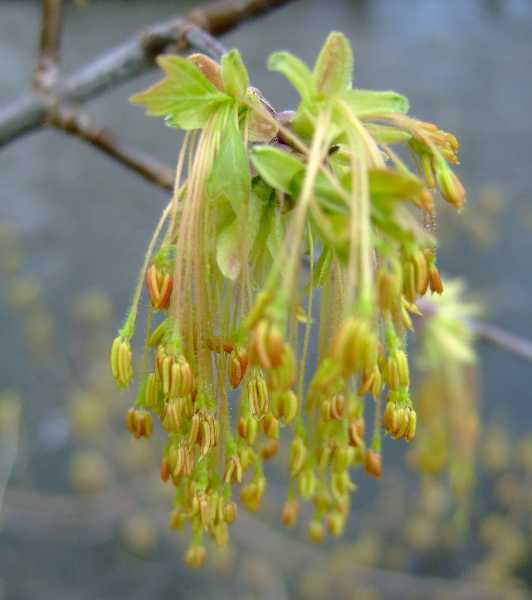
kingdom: Plantae
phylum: Tracheophyta
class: Magnoliopsida
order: Sapindales
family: Sapindaceae
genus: Acer
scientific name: Acer negundo
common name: Ashleaf maple
